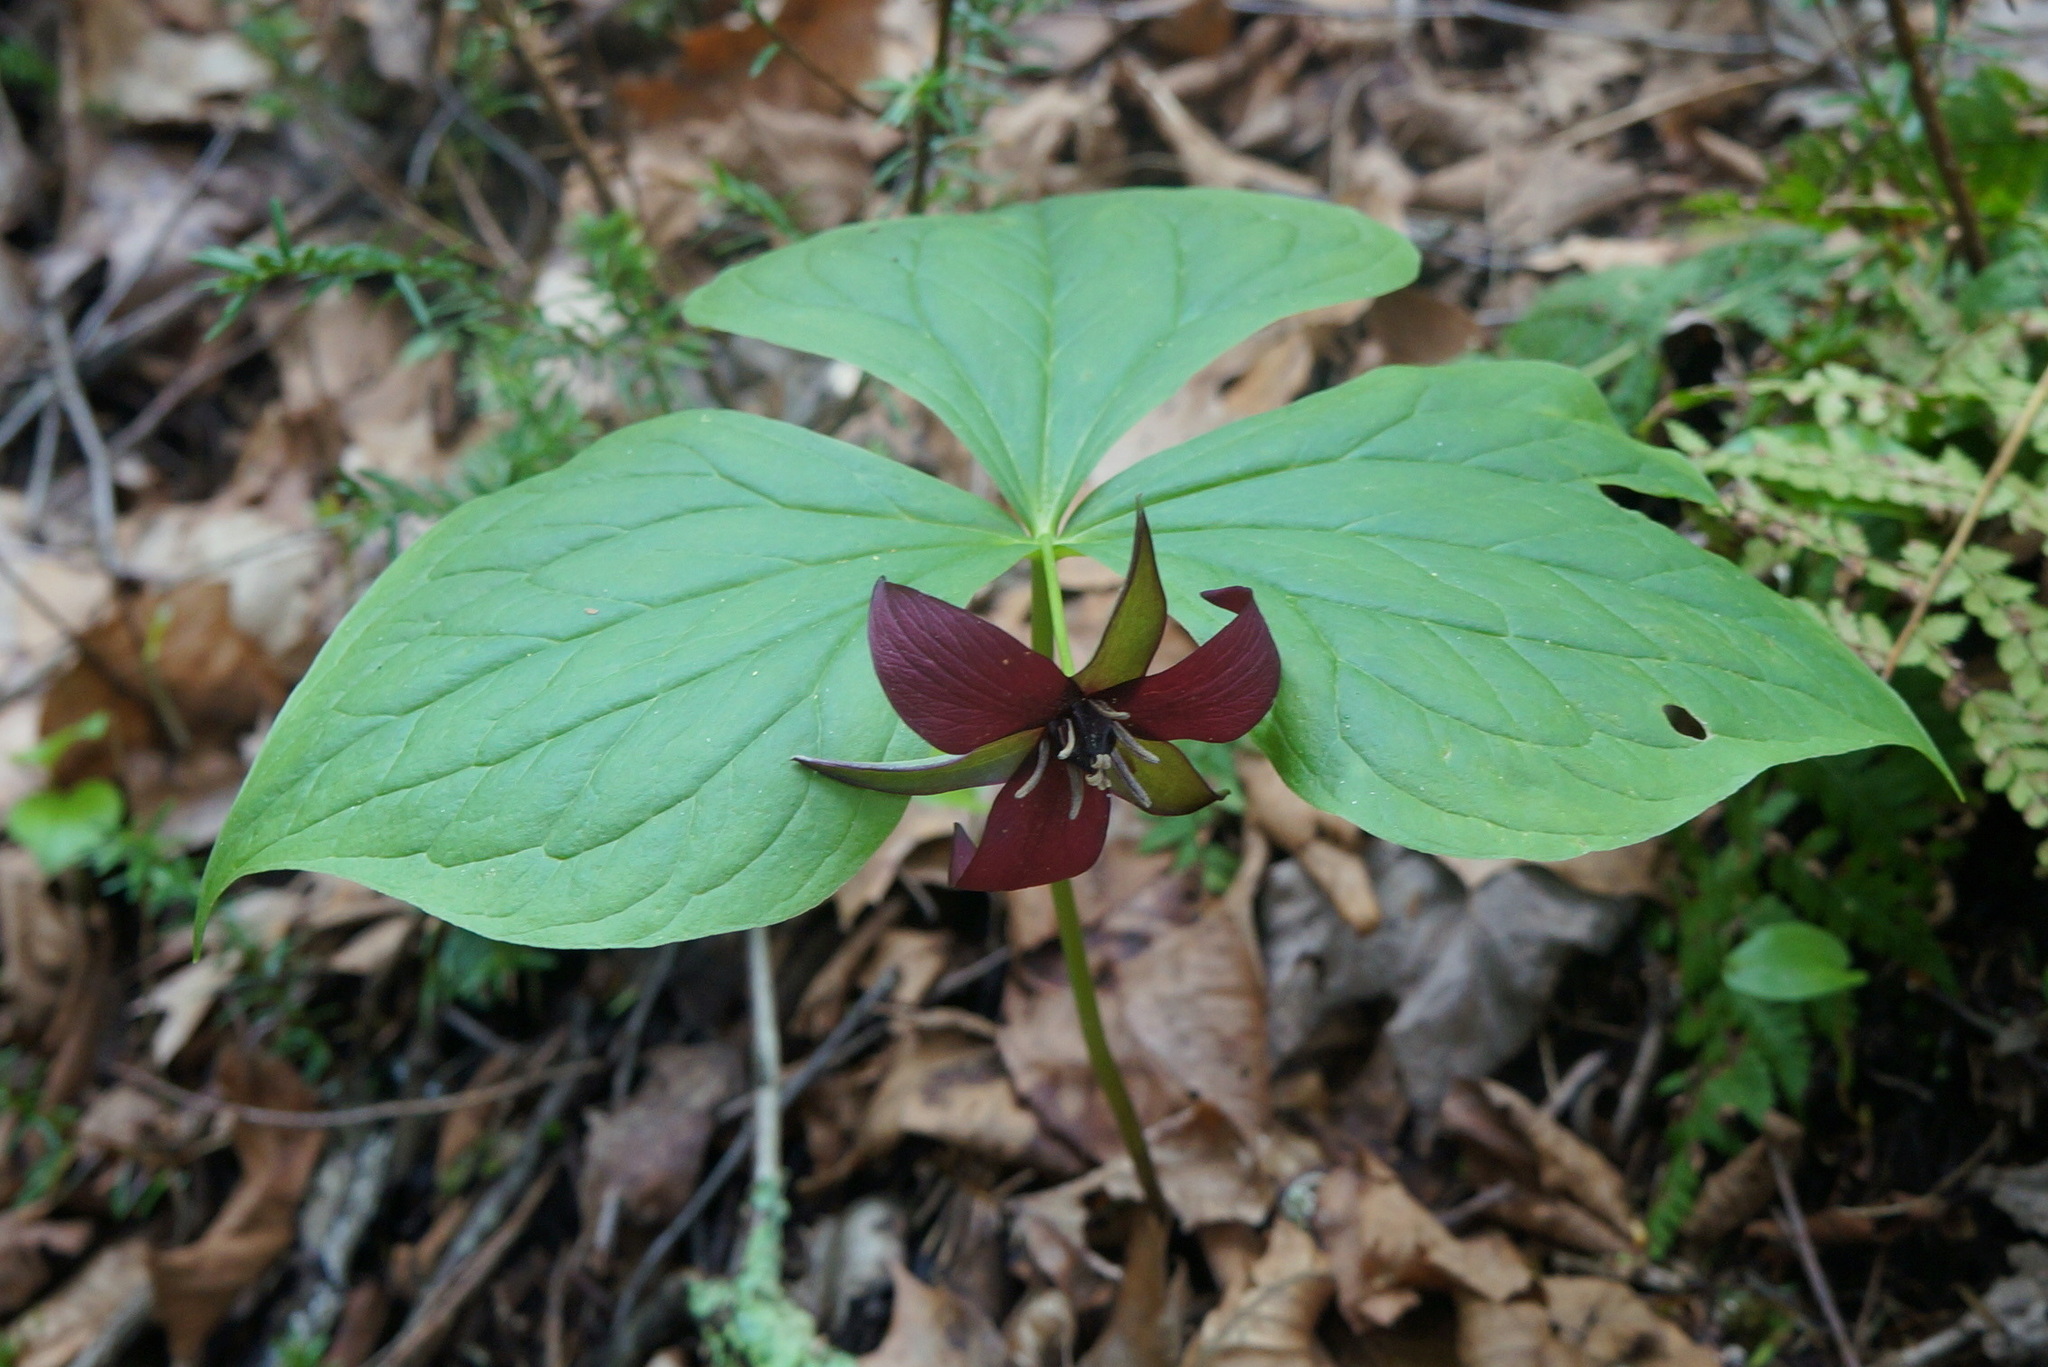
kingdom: Plantae
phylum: Tracheophyta
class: Liliopsida
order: Liliales
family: Melanthiaceae
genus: Trillium
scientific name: Trillium erectum
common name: Purple trillium
